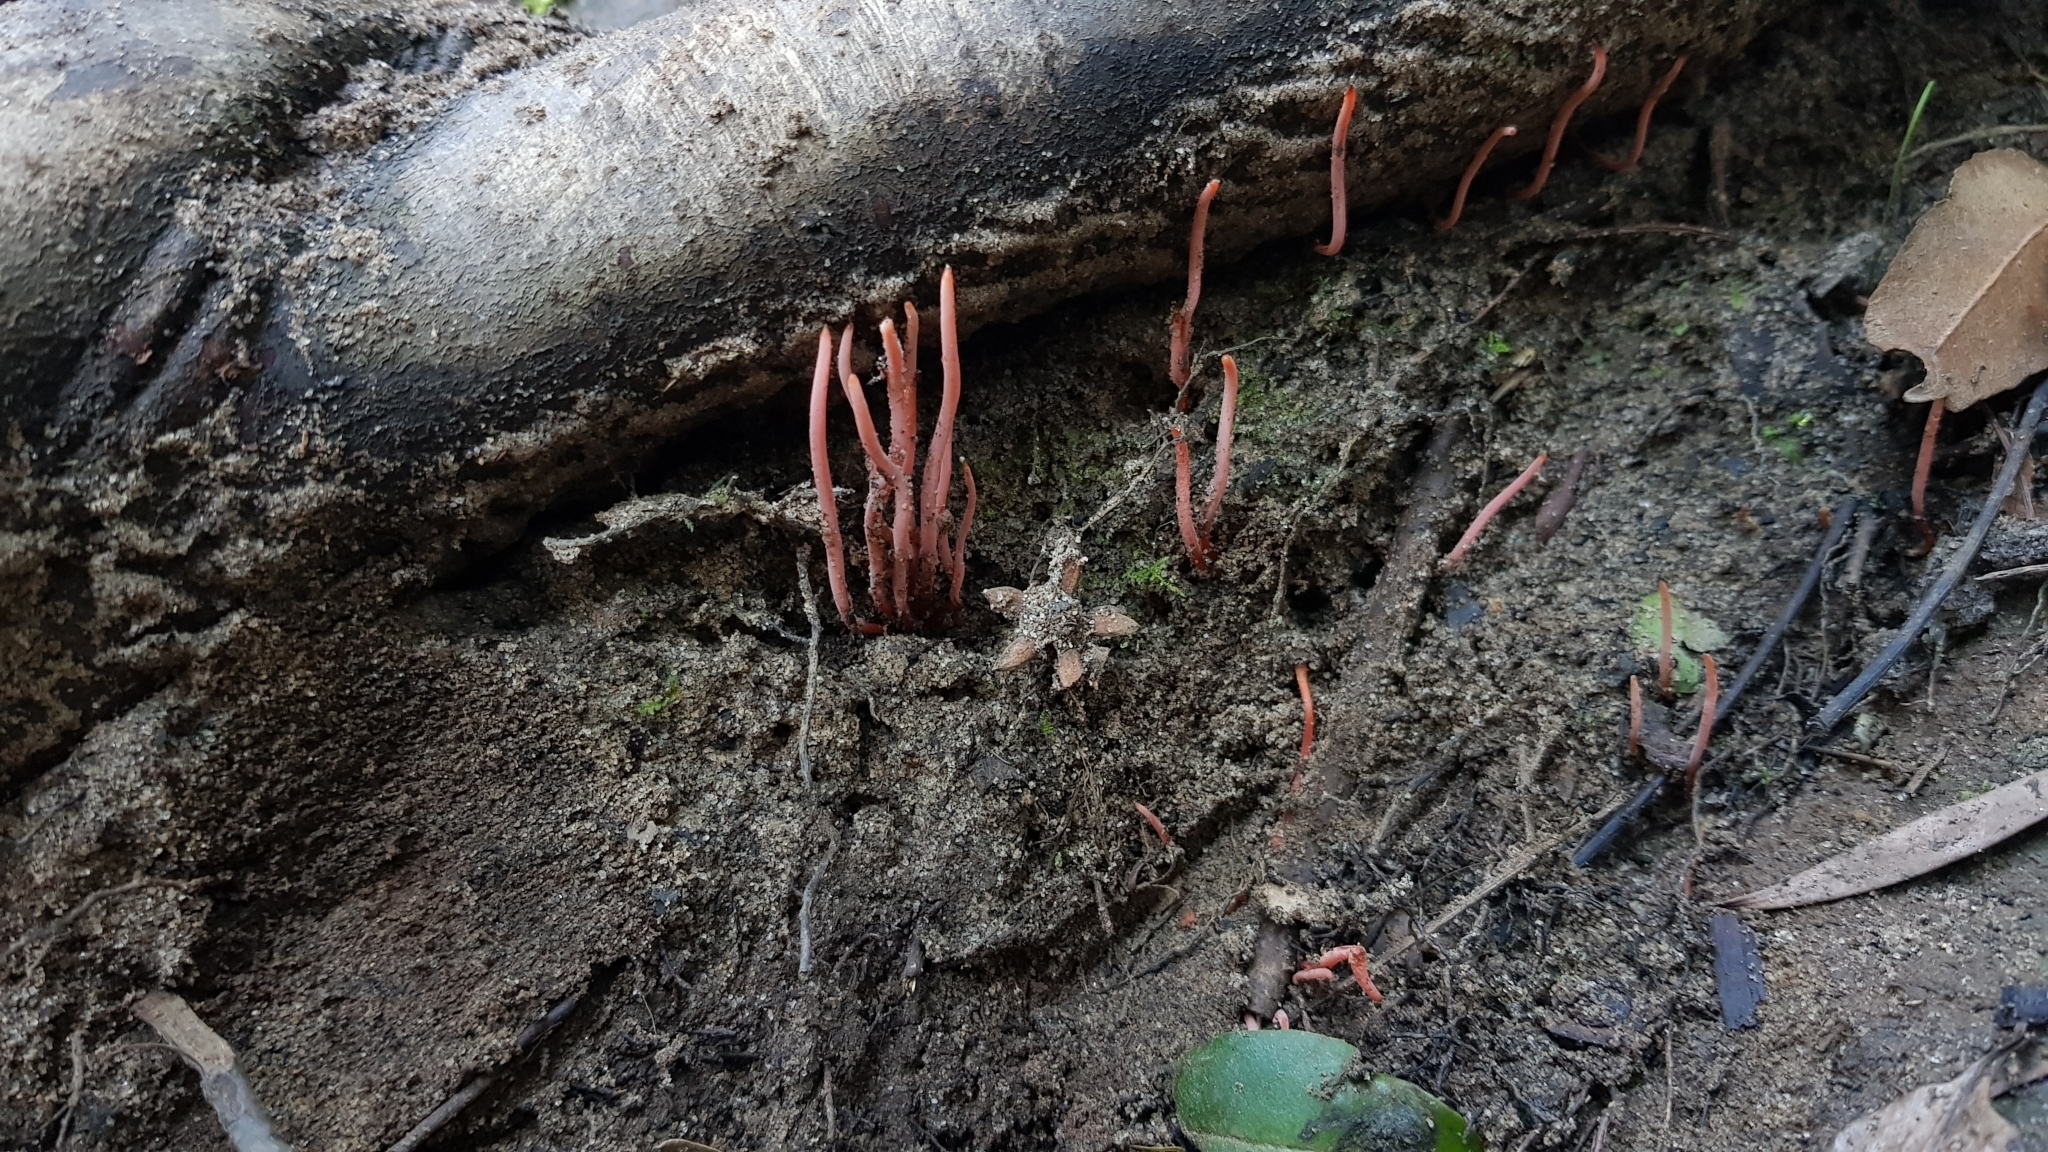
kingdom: Fungi
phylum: Basidiomycota
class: Agaricomycetes
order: Agaricales
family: Clavariaceae
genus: Clavulinopsis
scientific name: Clavulinopsis corallinorosacea
